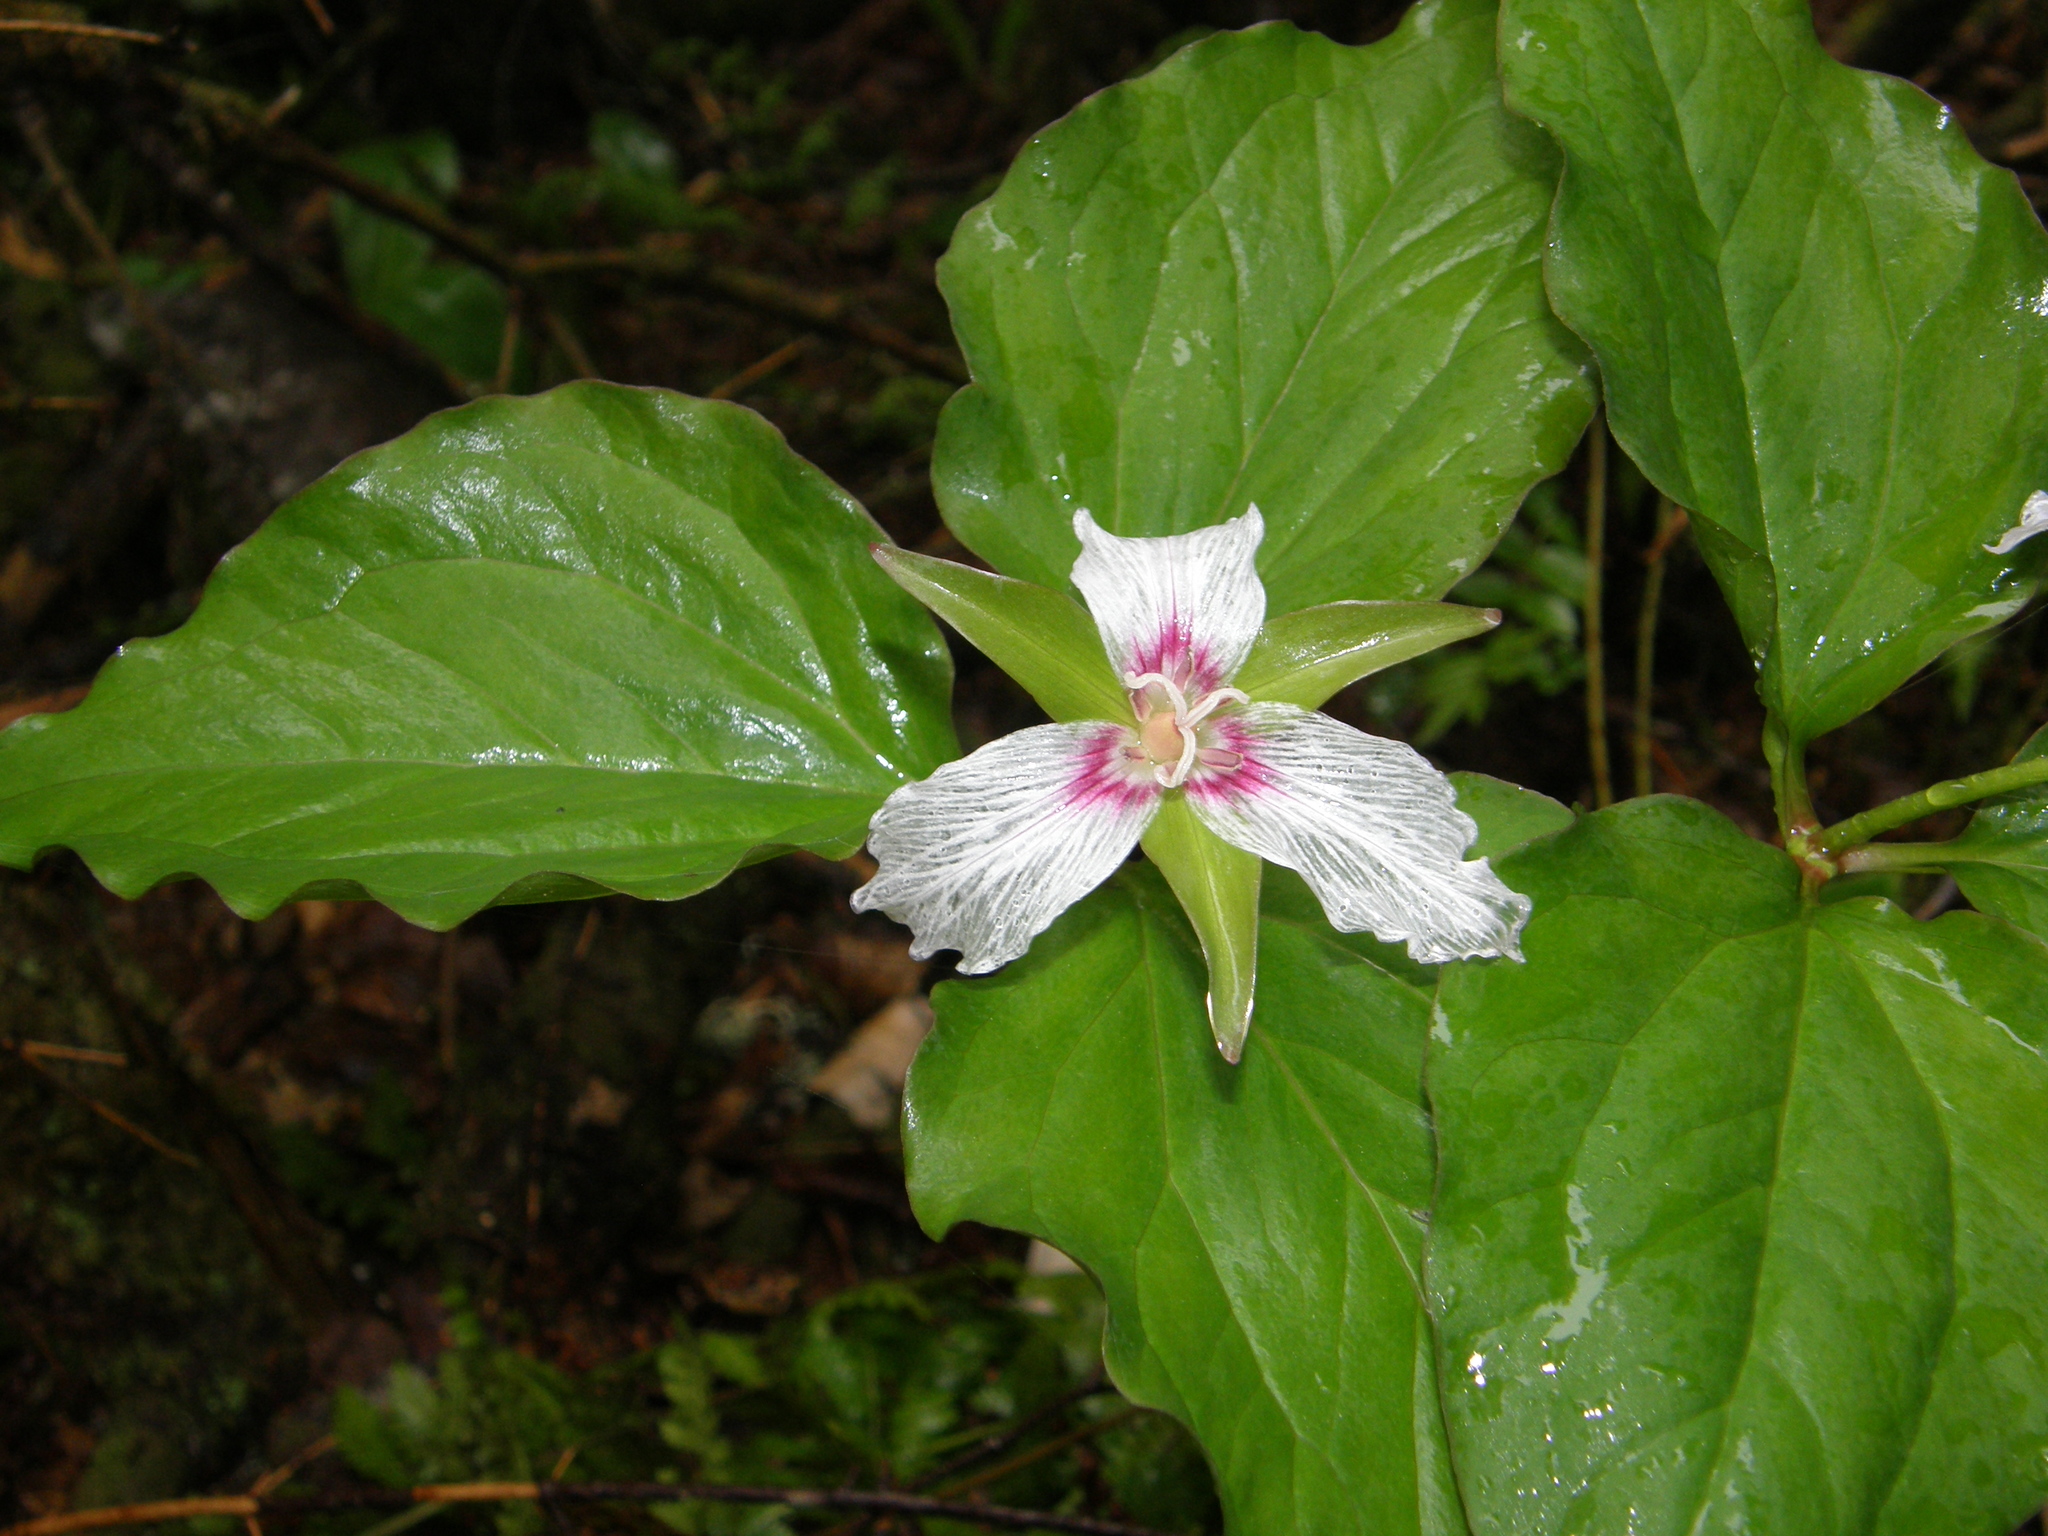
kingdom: Plantae
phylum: Tracheophyta
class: Liliopsida
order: Liliales
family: Melanthiaceae
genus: Trillium
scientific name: Trillium undulatum
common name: Paint trillium
